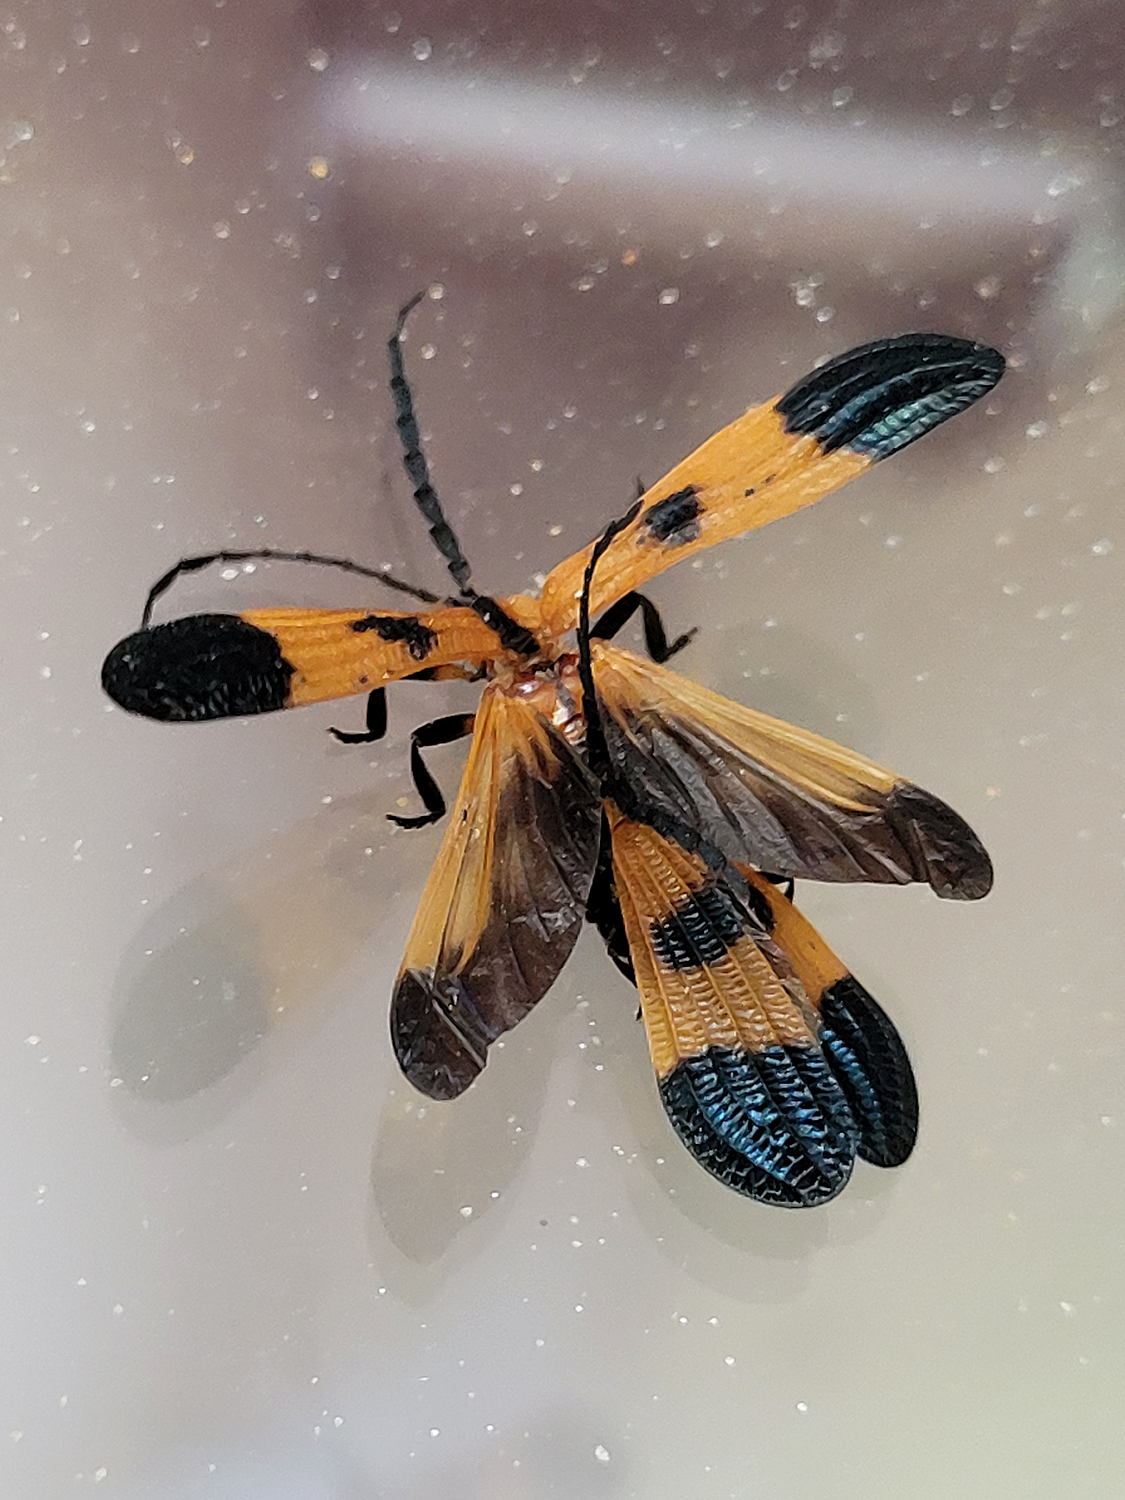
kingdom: Animalia
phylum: Arthropoda
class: Insecta
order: Coleoptera
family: Lycidae
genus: Calopteron
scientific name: Calopteron terminale
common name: End band net-winged beetle
